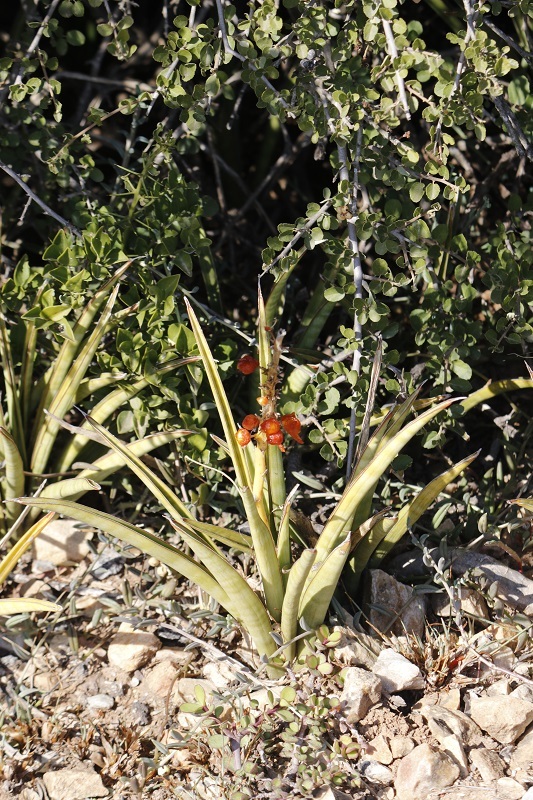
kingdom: Plantae
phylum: Tracheophyta
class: Liliopsida
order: Asparagales
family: Asparagaceae
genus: Dracaena
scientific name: Dracaena aethiopica
